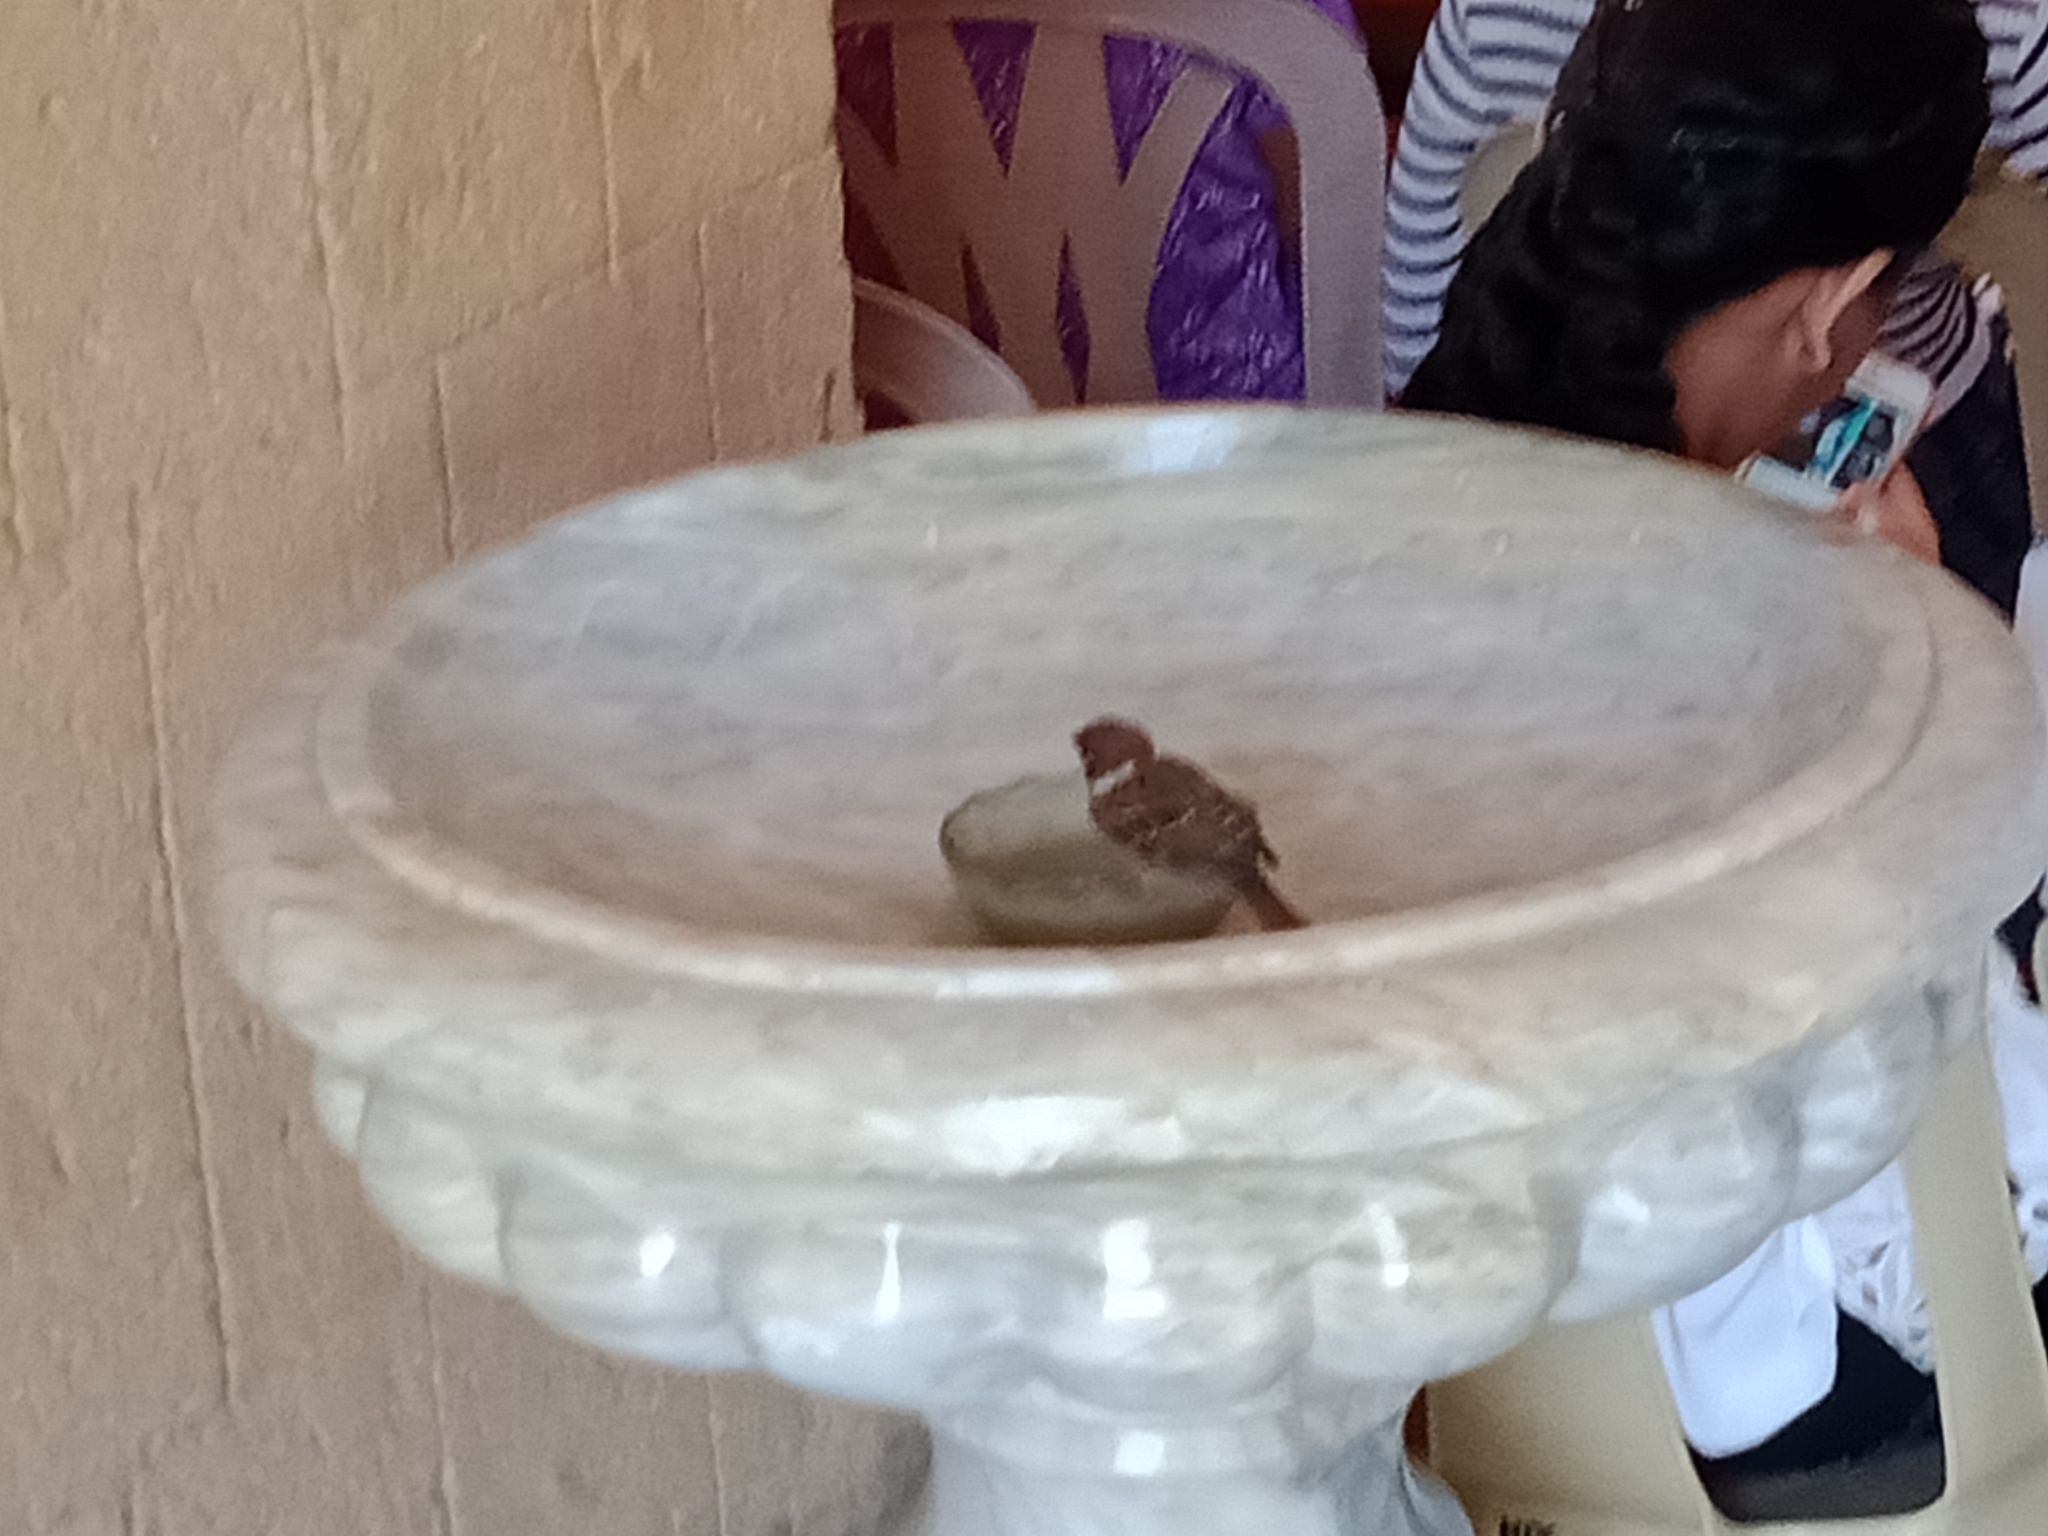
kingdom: Animalia
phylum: Chordata
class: Aves
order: Passeriformes
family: Passeridae
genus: Passer
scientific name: Passer montanus
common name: Eurasian tree sparrow
